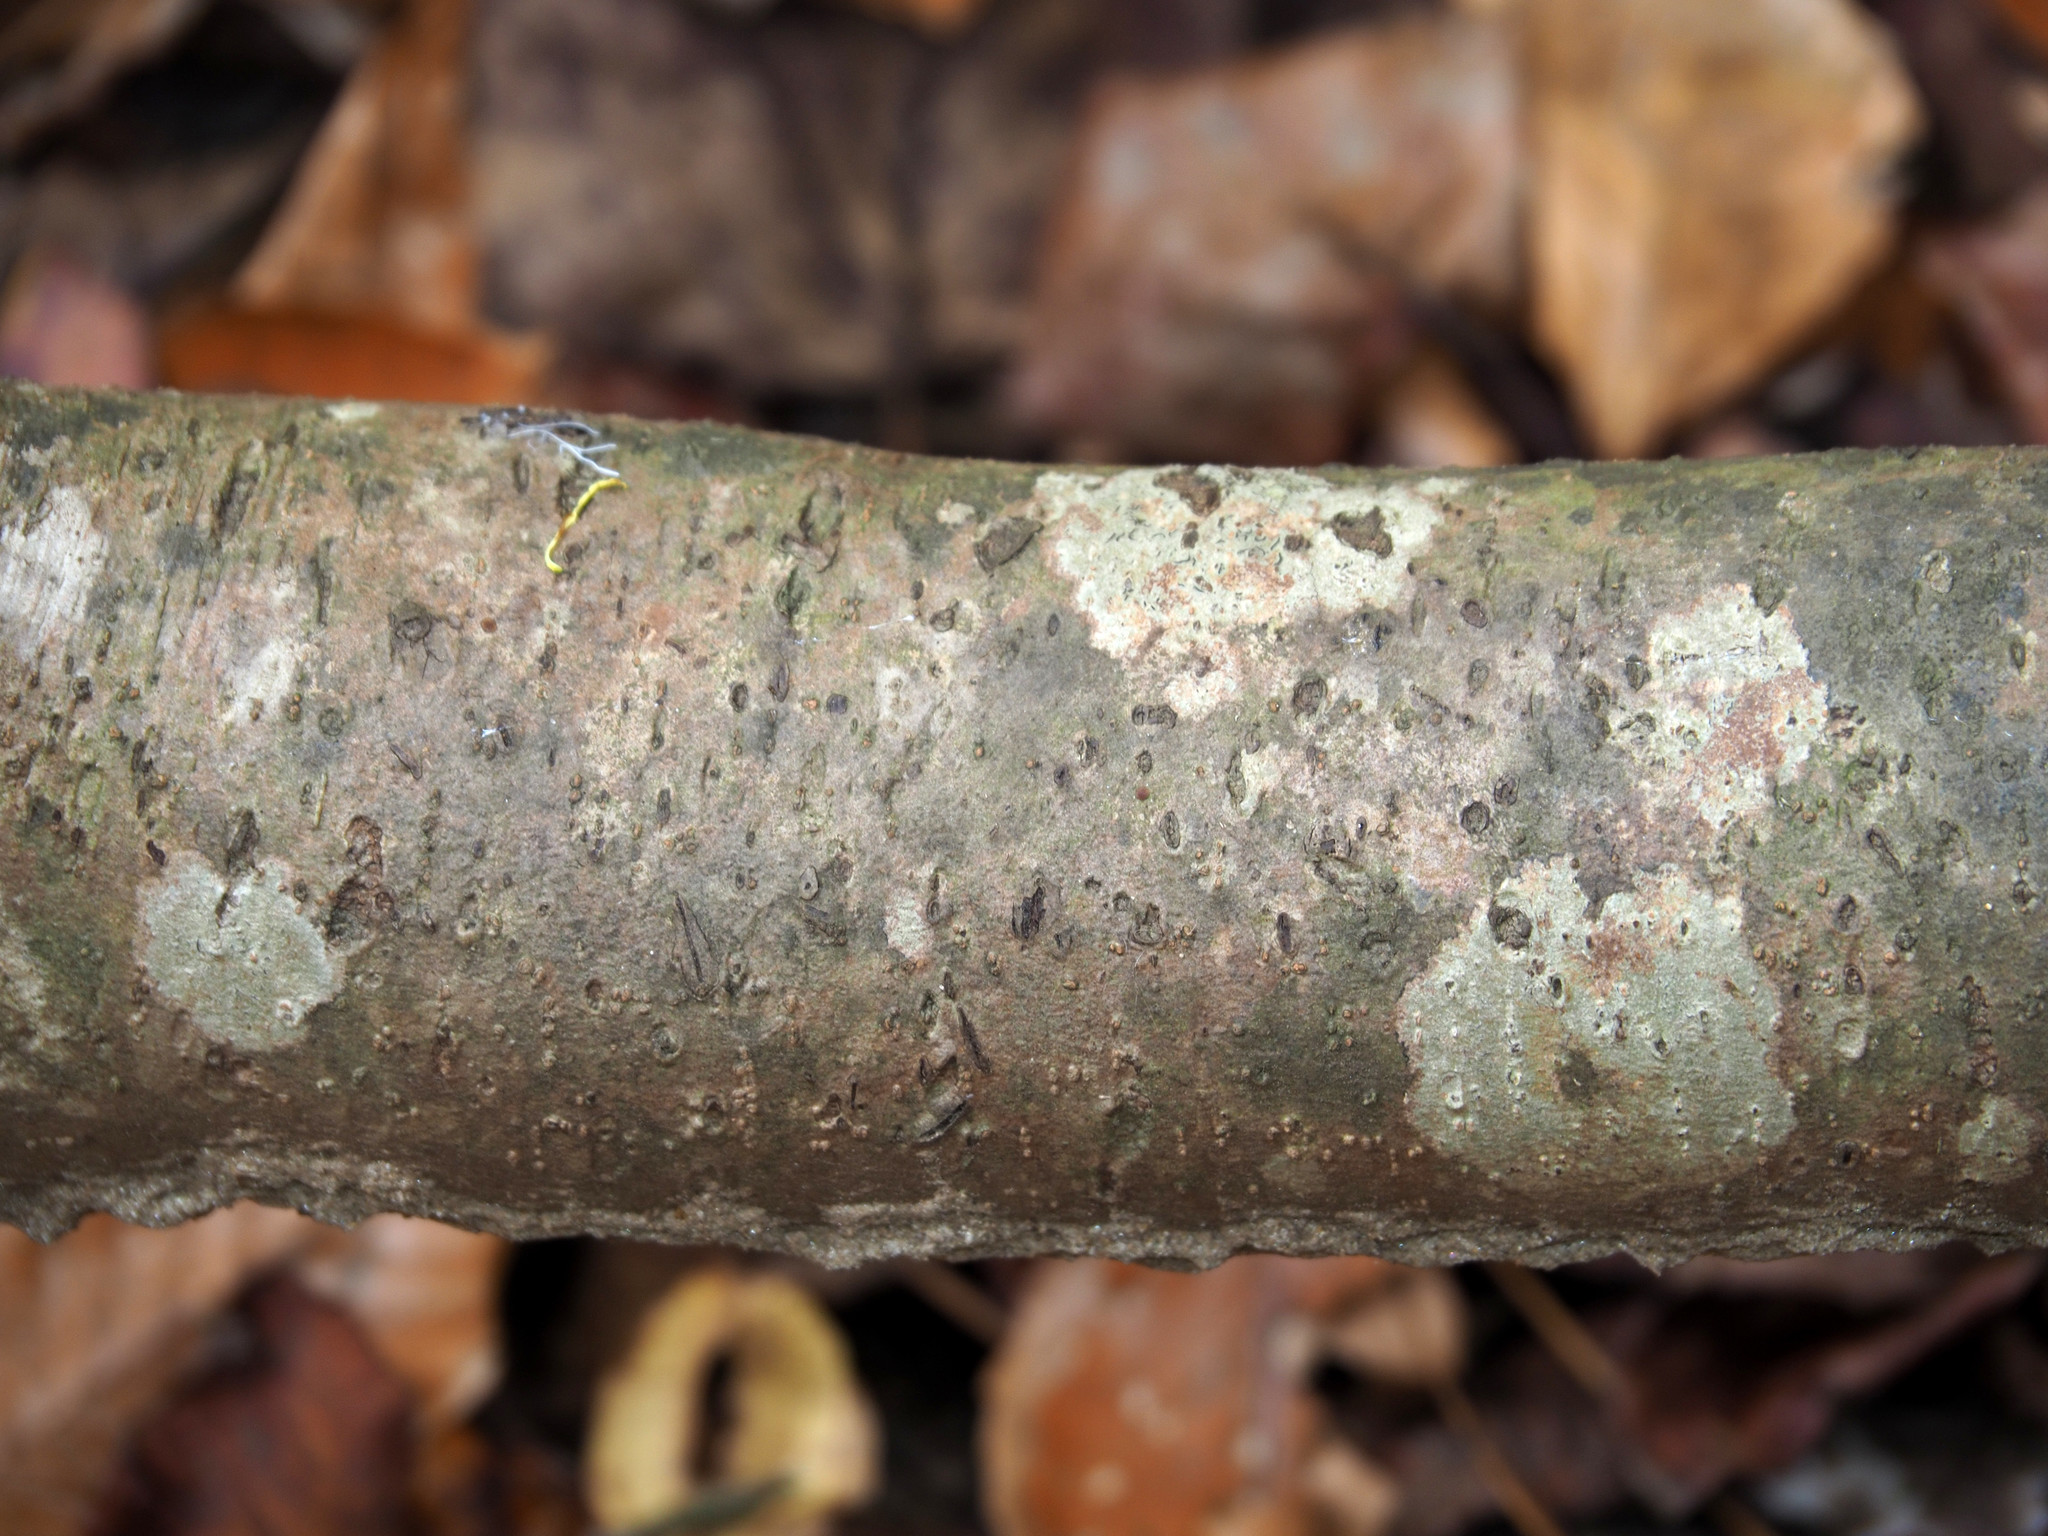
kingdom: Plantae
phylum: Tracheophyta
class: Magnoliopsida
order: Saxifragales
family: Hamamelidaceae
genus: Hamamelis
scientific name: Hamamelis virginiana
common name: Witch-hazel
